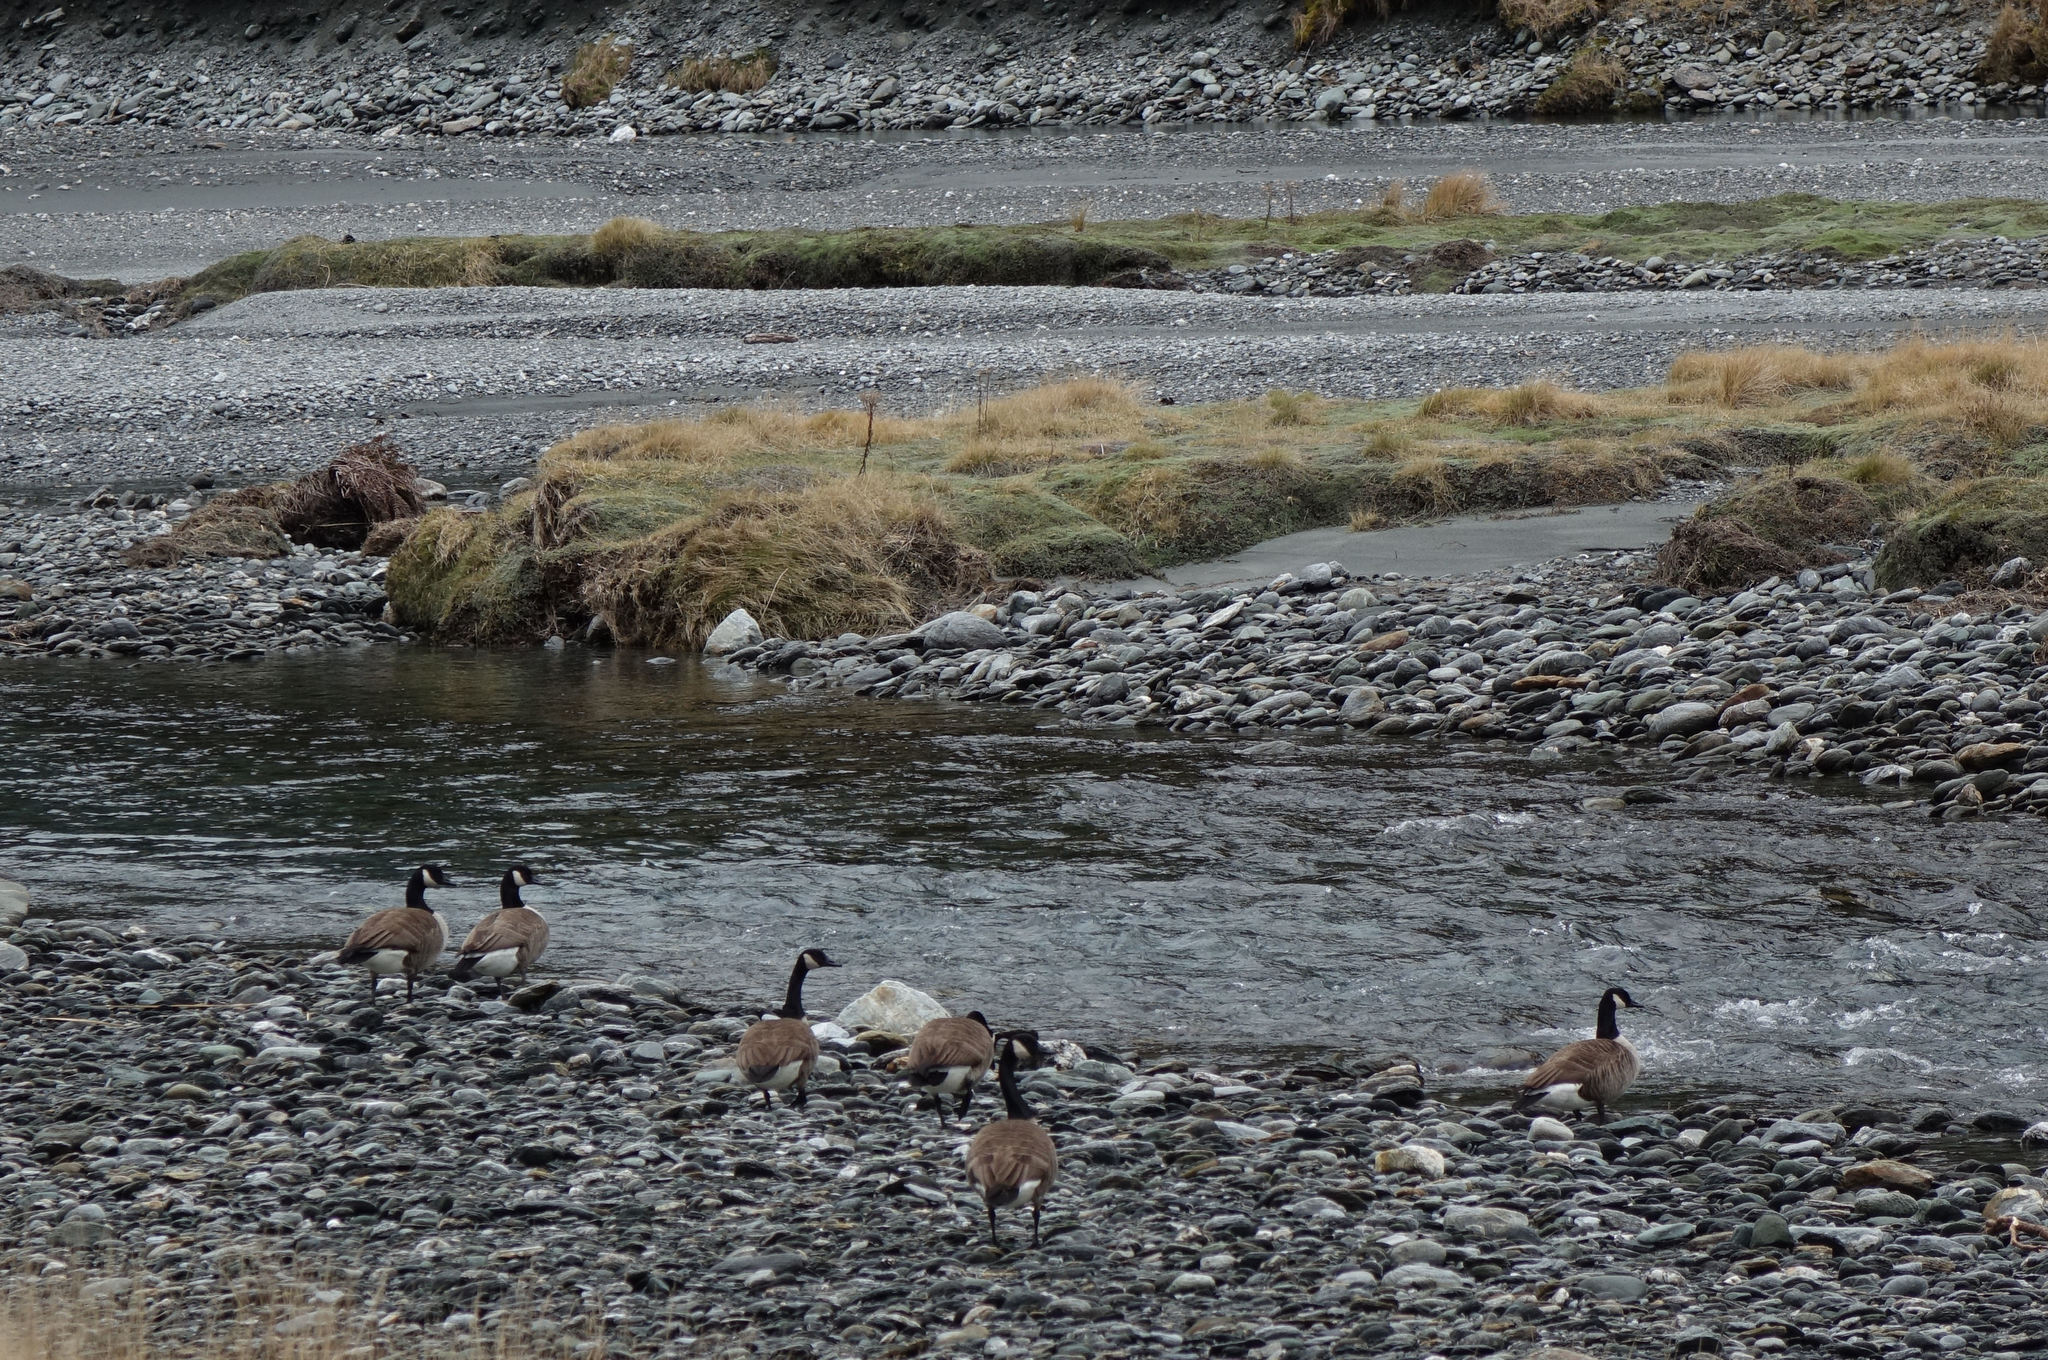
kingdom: Animalia
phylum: Chordata
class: Aves
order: Anseriformes
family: Anatidae
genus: Branta
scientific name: Branta canadensis
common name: Canada goose
